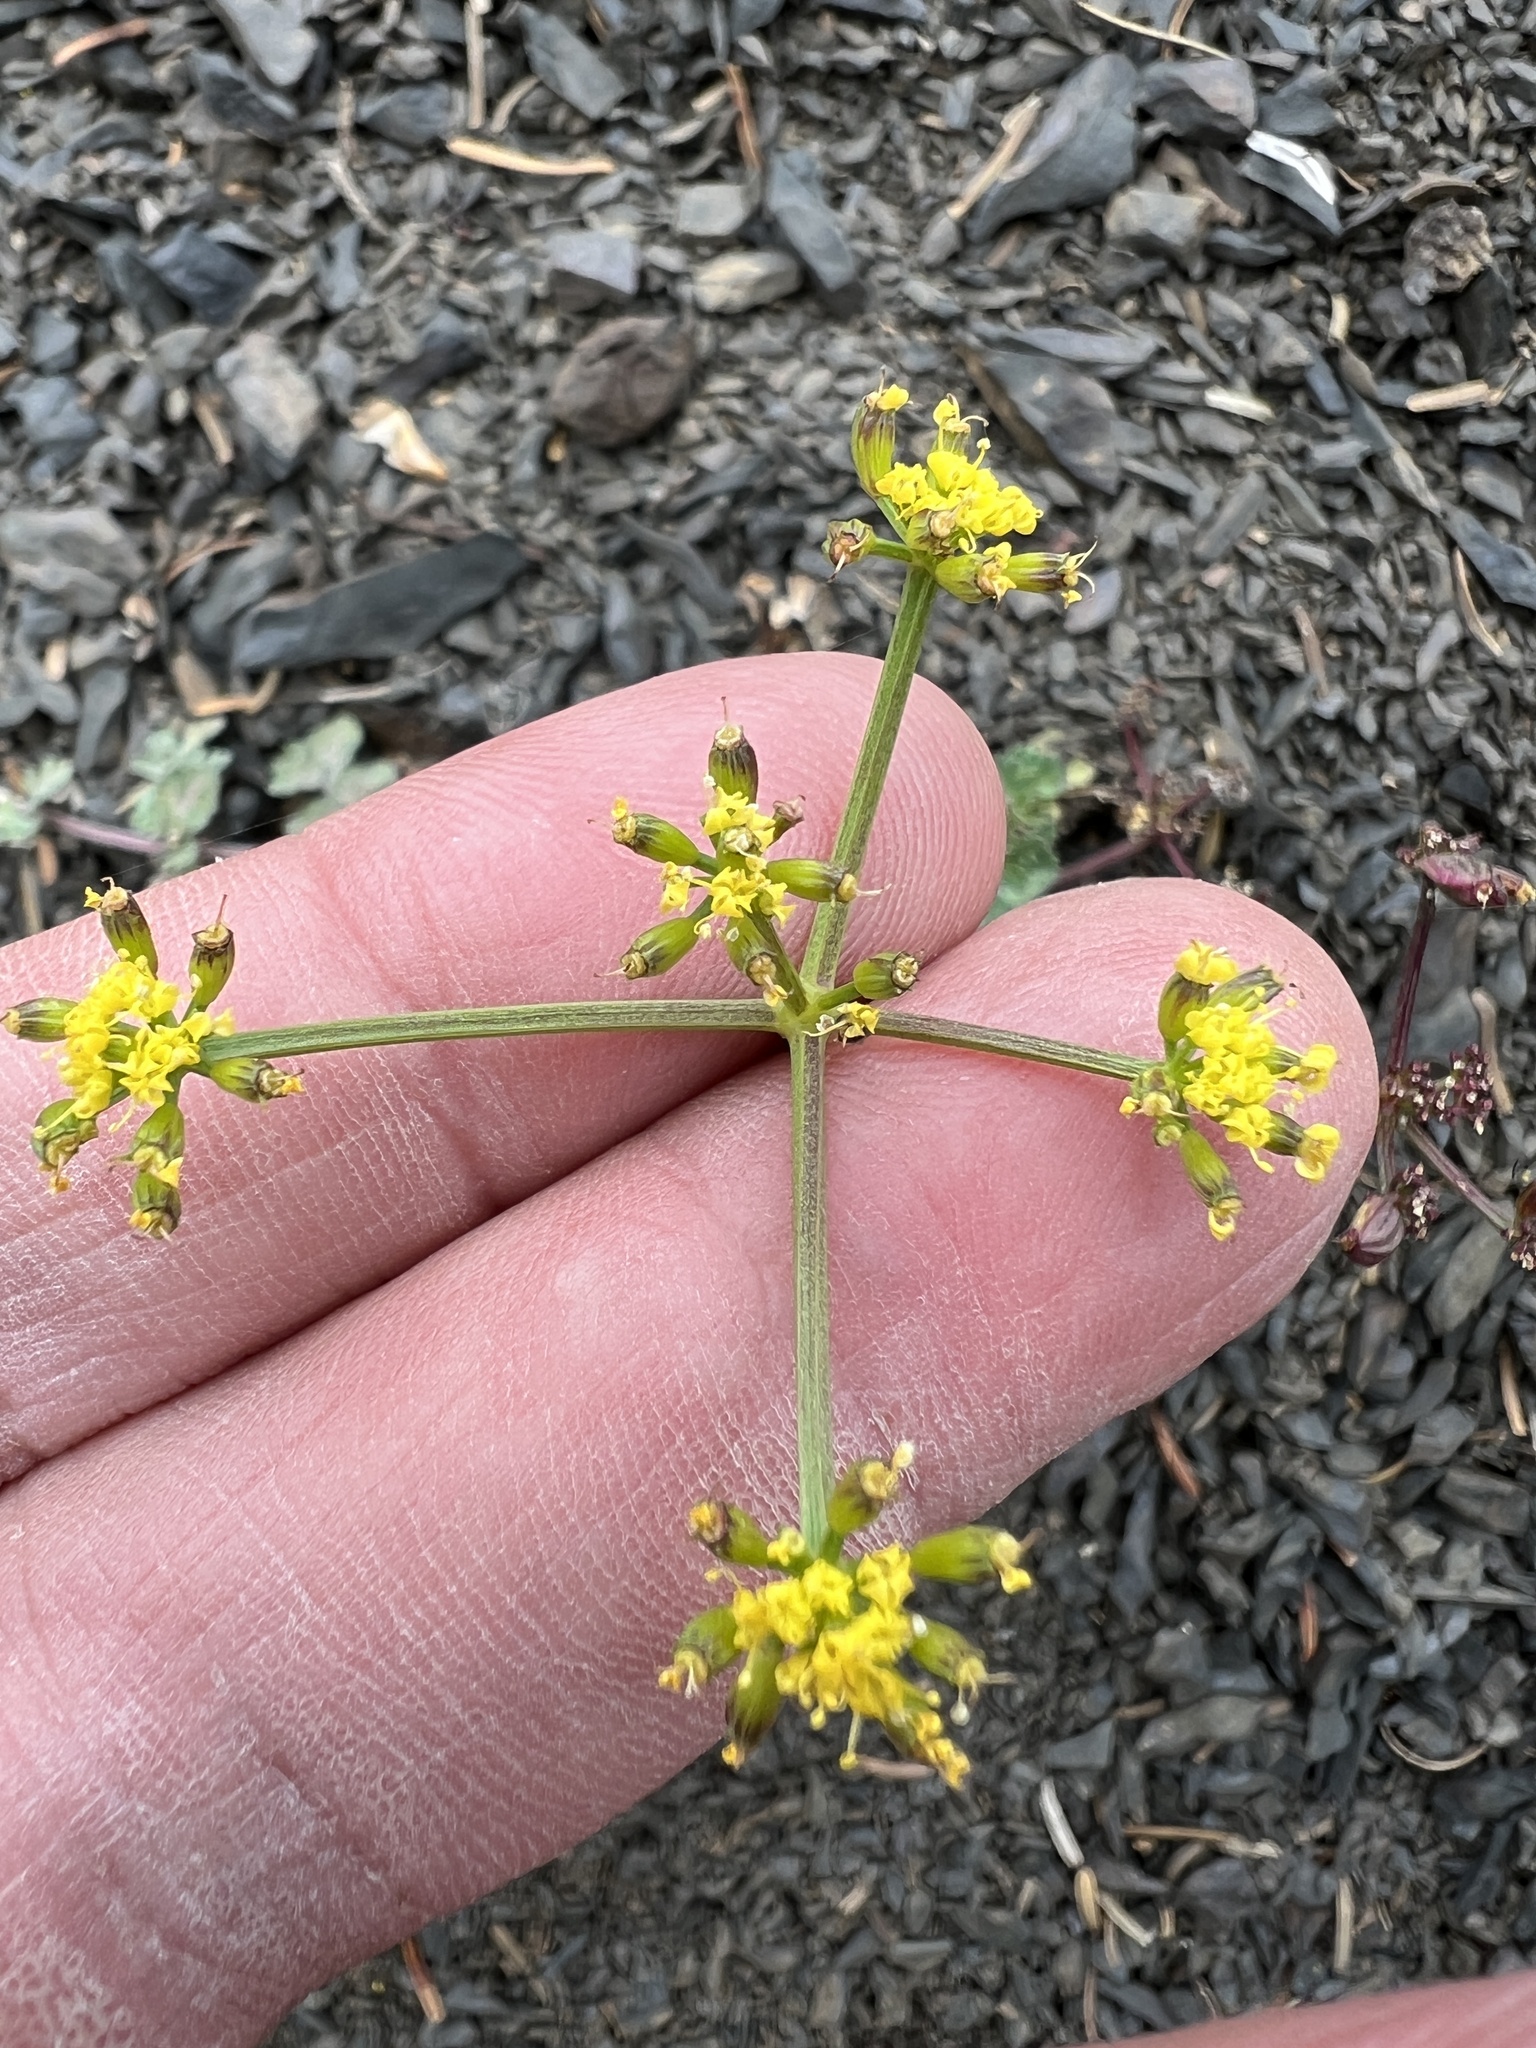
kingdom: Plantae
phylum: Tracheophyta
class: Magnoliopsida
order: Apiales
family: Apiaceae
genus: Lomatium
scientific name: Lomatium martindalei
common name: Cascade desert-parsley
